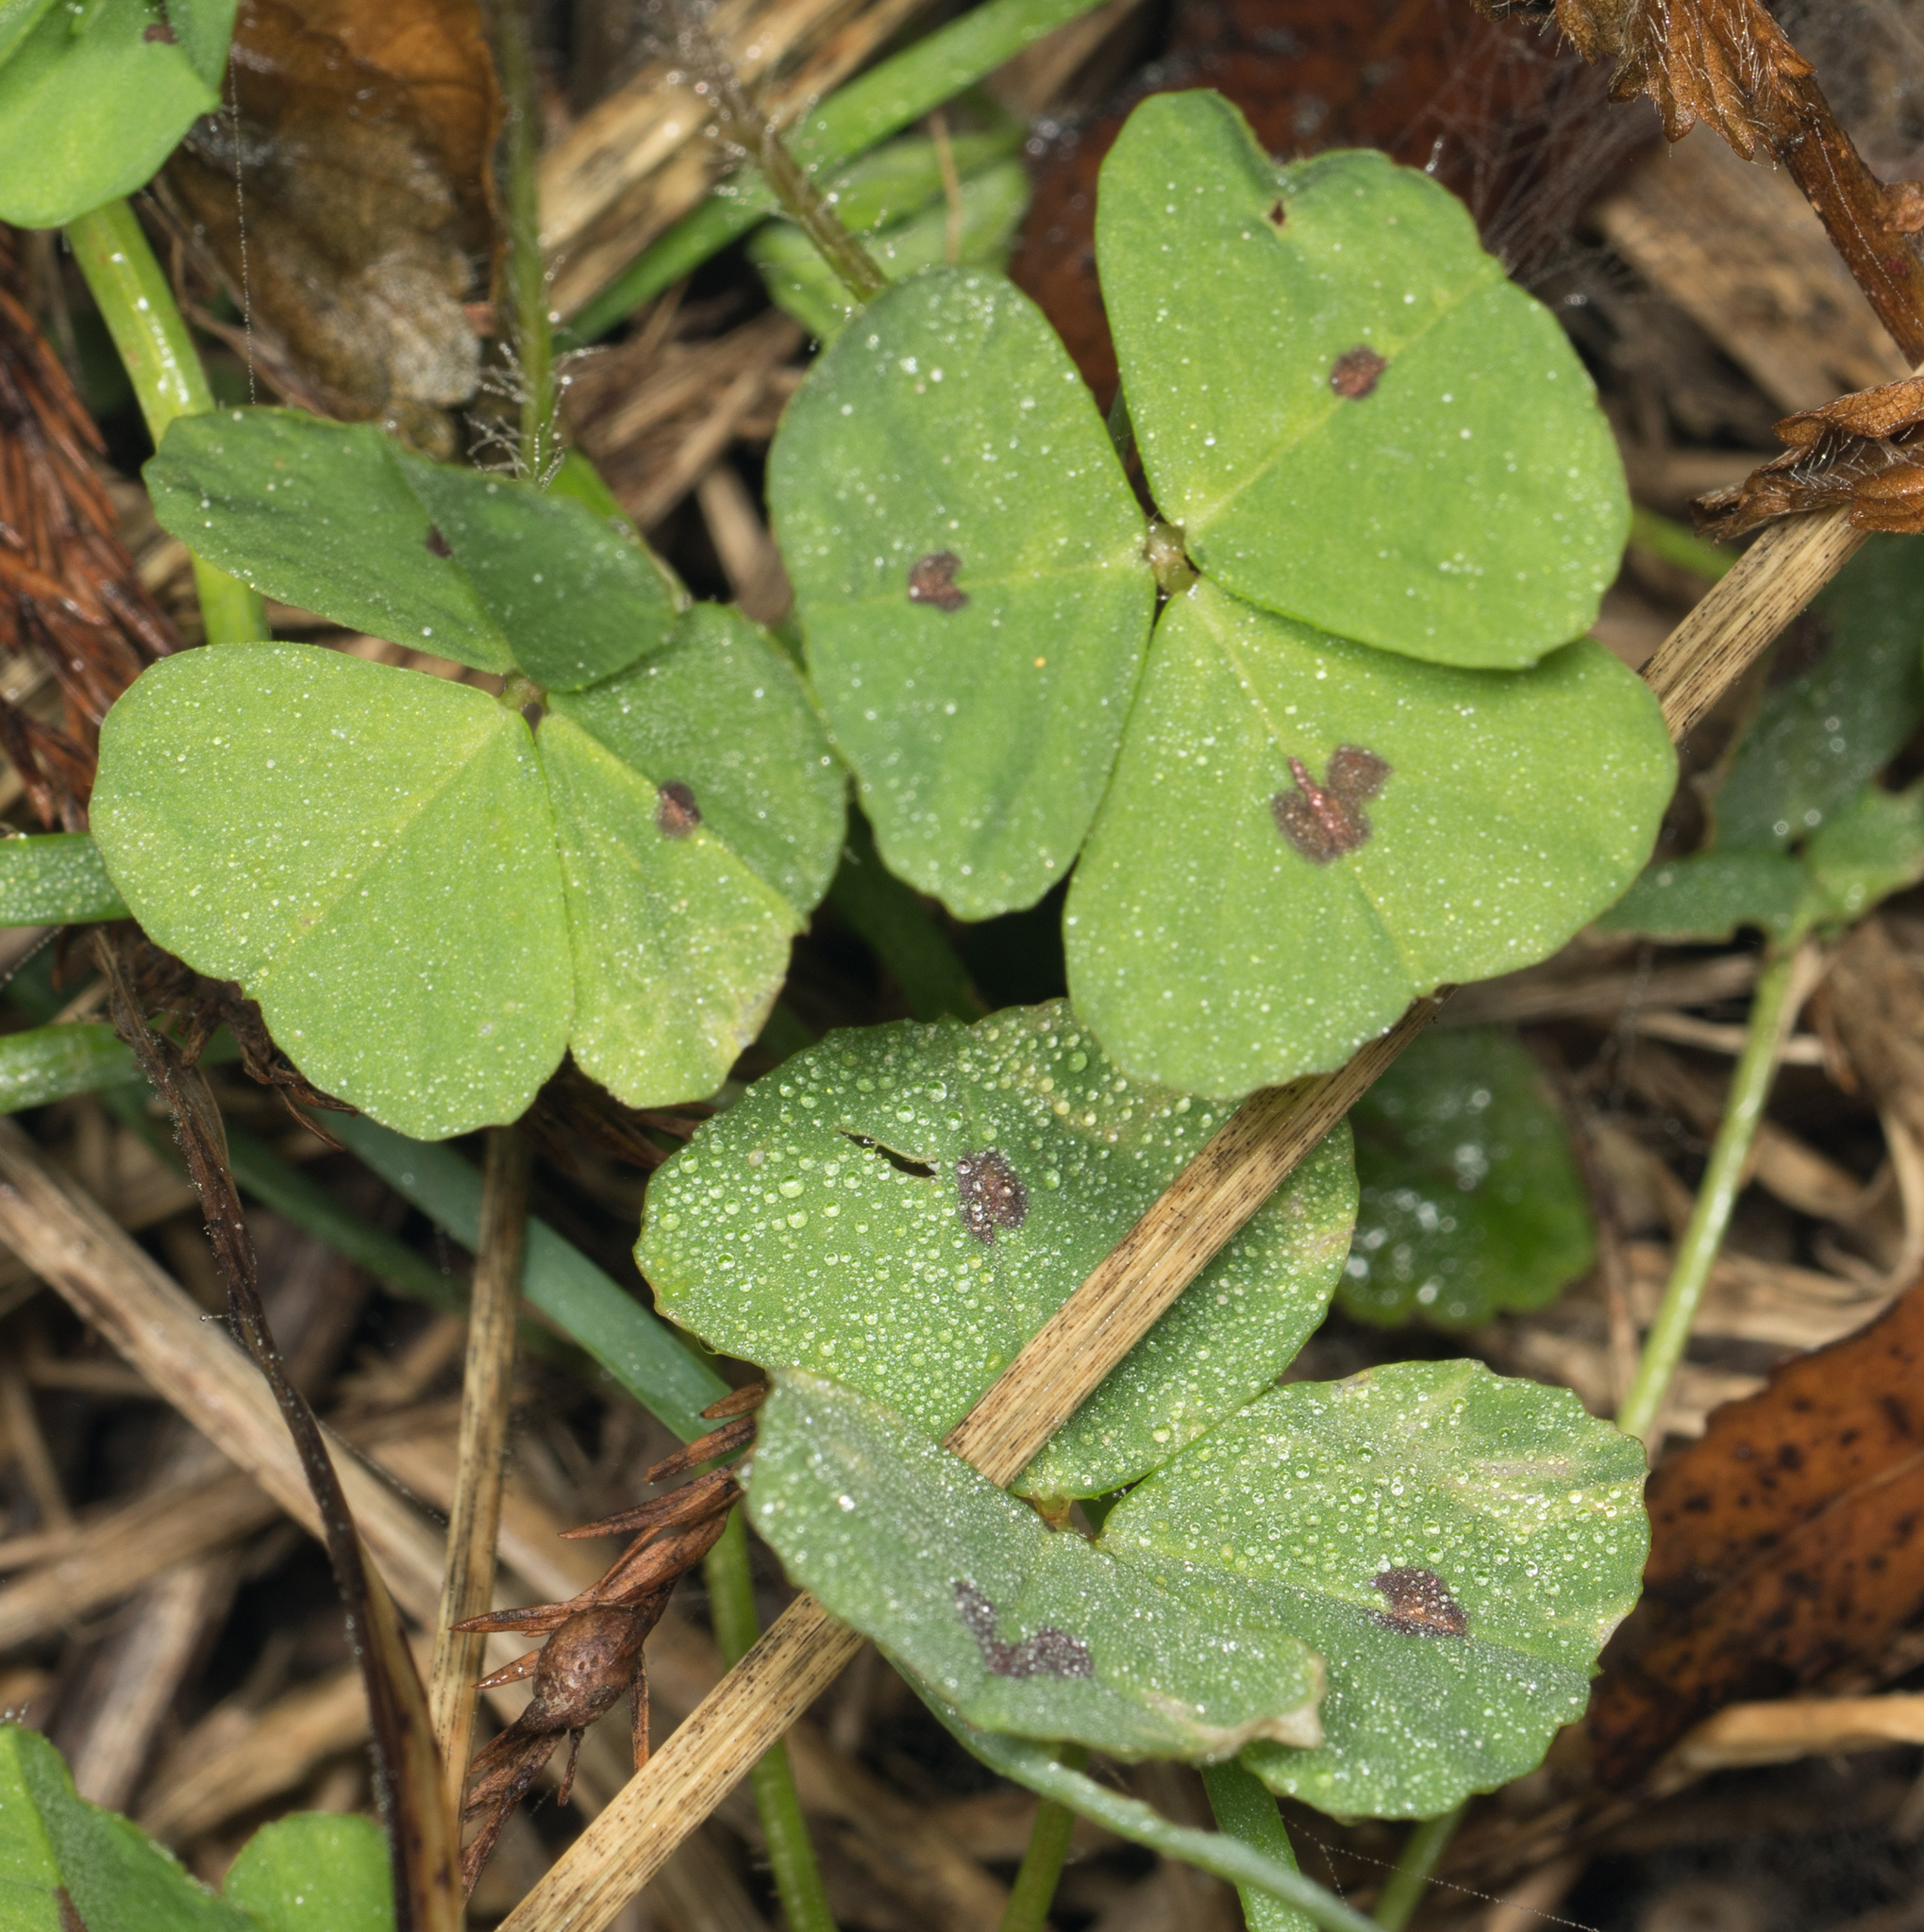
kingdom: Plantae
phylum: Tracheophyta
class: Magnoliopsida
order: Fabales
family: Fabaceae
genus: Medicago
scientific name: Medicago arabica
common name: Spotted medick
